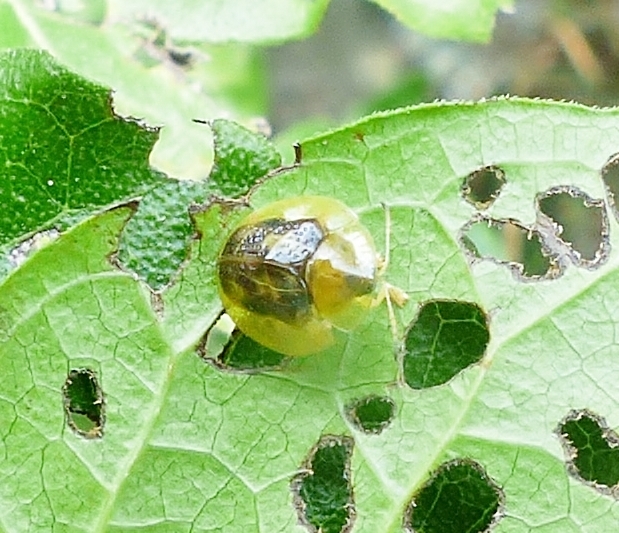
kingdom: Animalia
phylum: Arthropoda
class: Insecta
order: Coleoptera
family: Chrysomelidae
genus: Coptocycla
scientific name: Coptocycla texana
